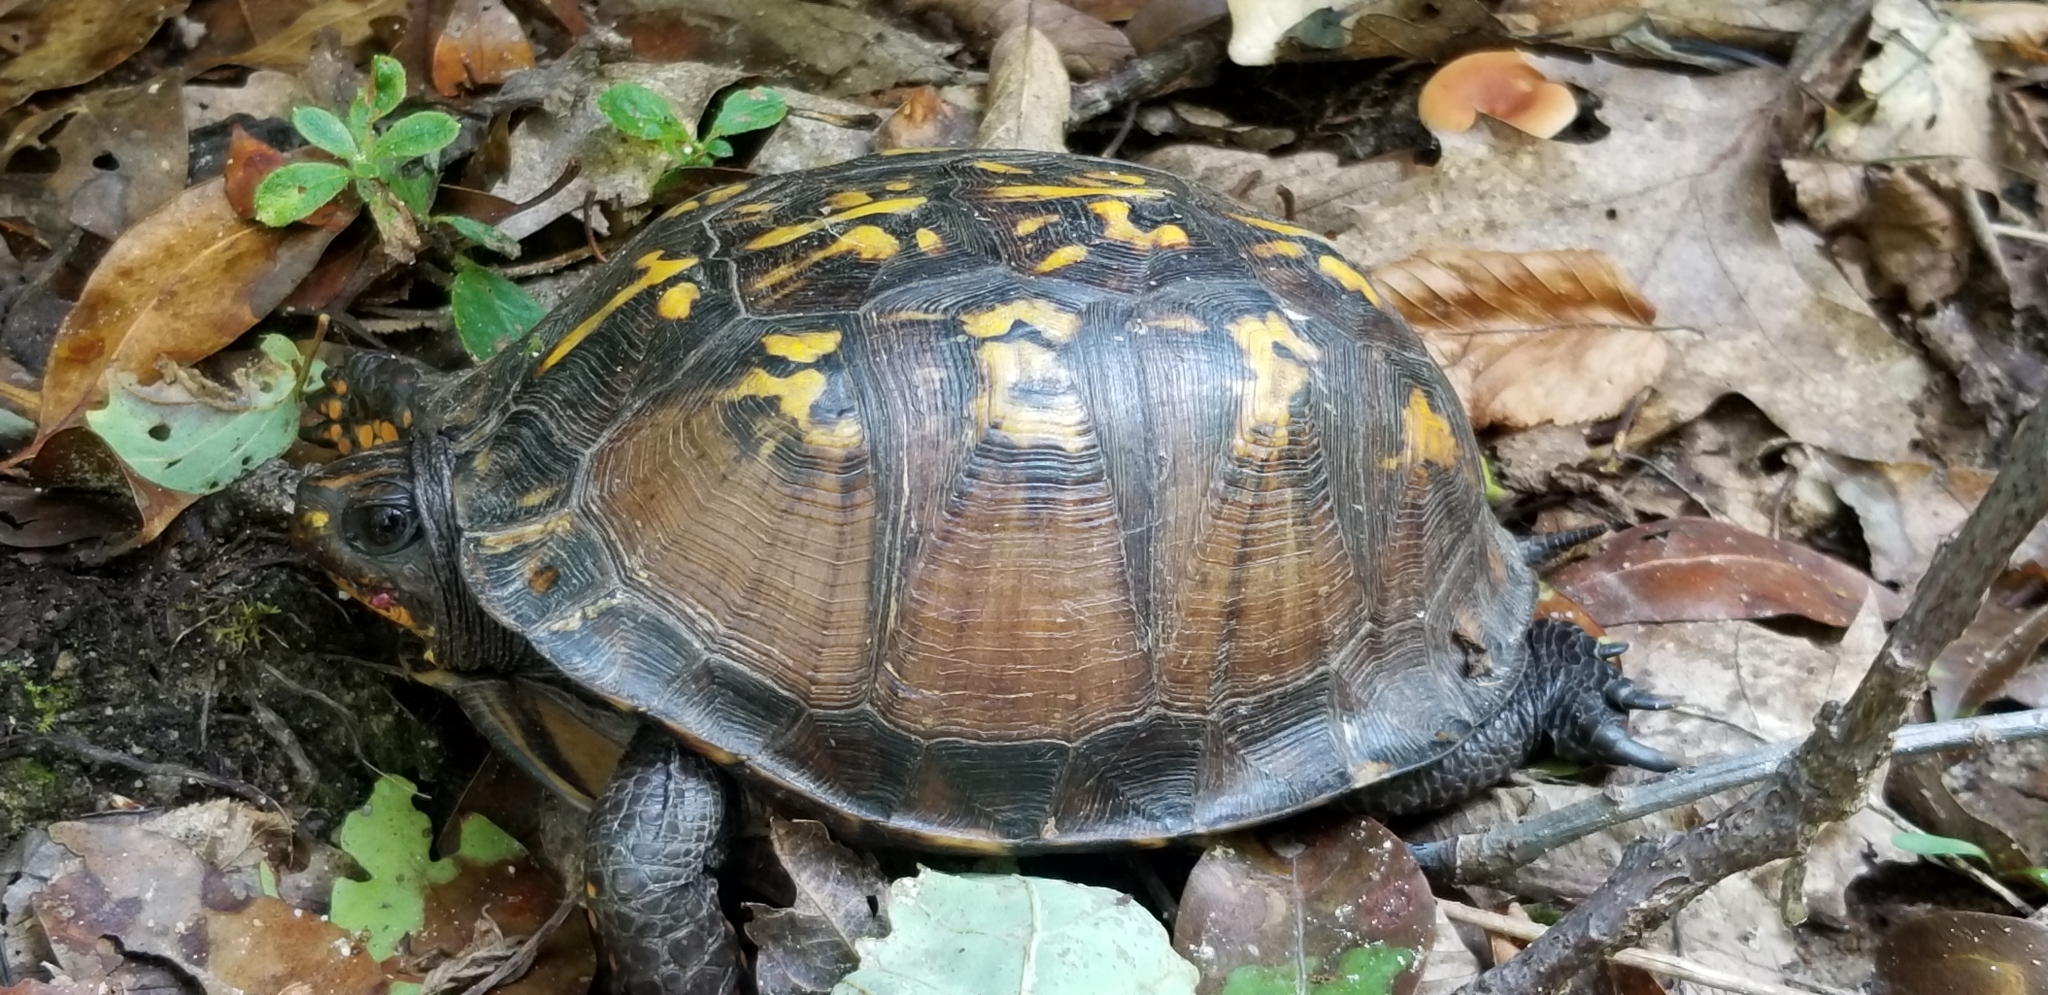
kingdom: Animalia
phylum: Chordata
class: Testudines
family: Emydidae
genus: Terrapene
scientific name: Terrapene carolina
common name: Common box turtle
